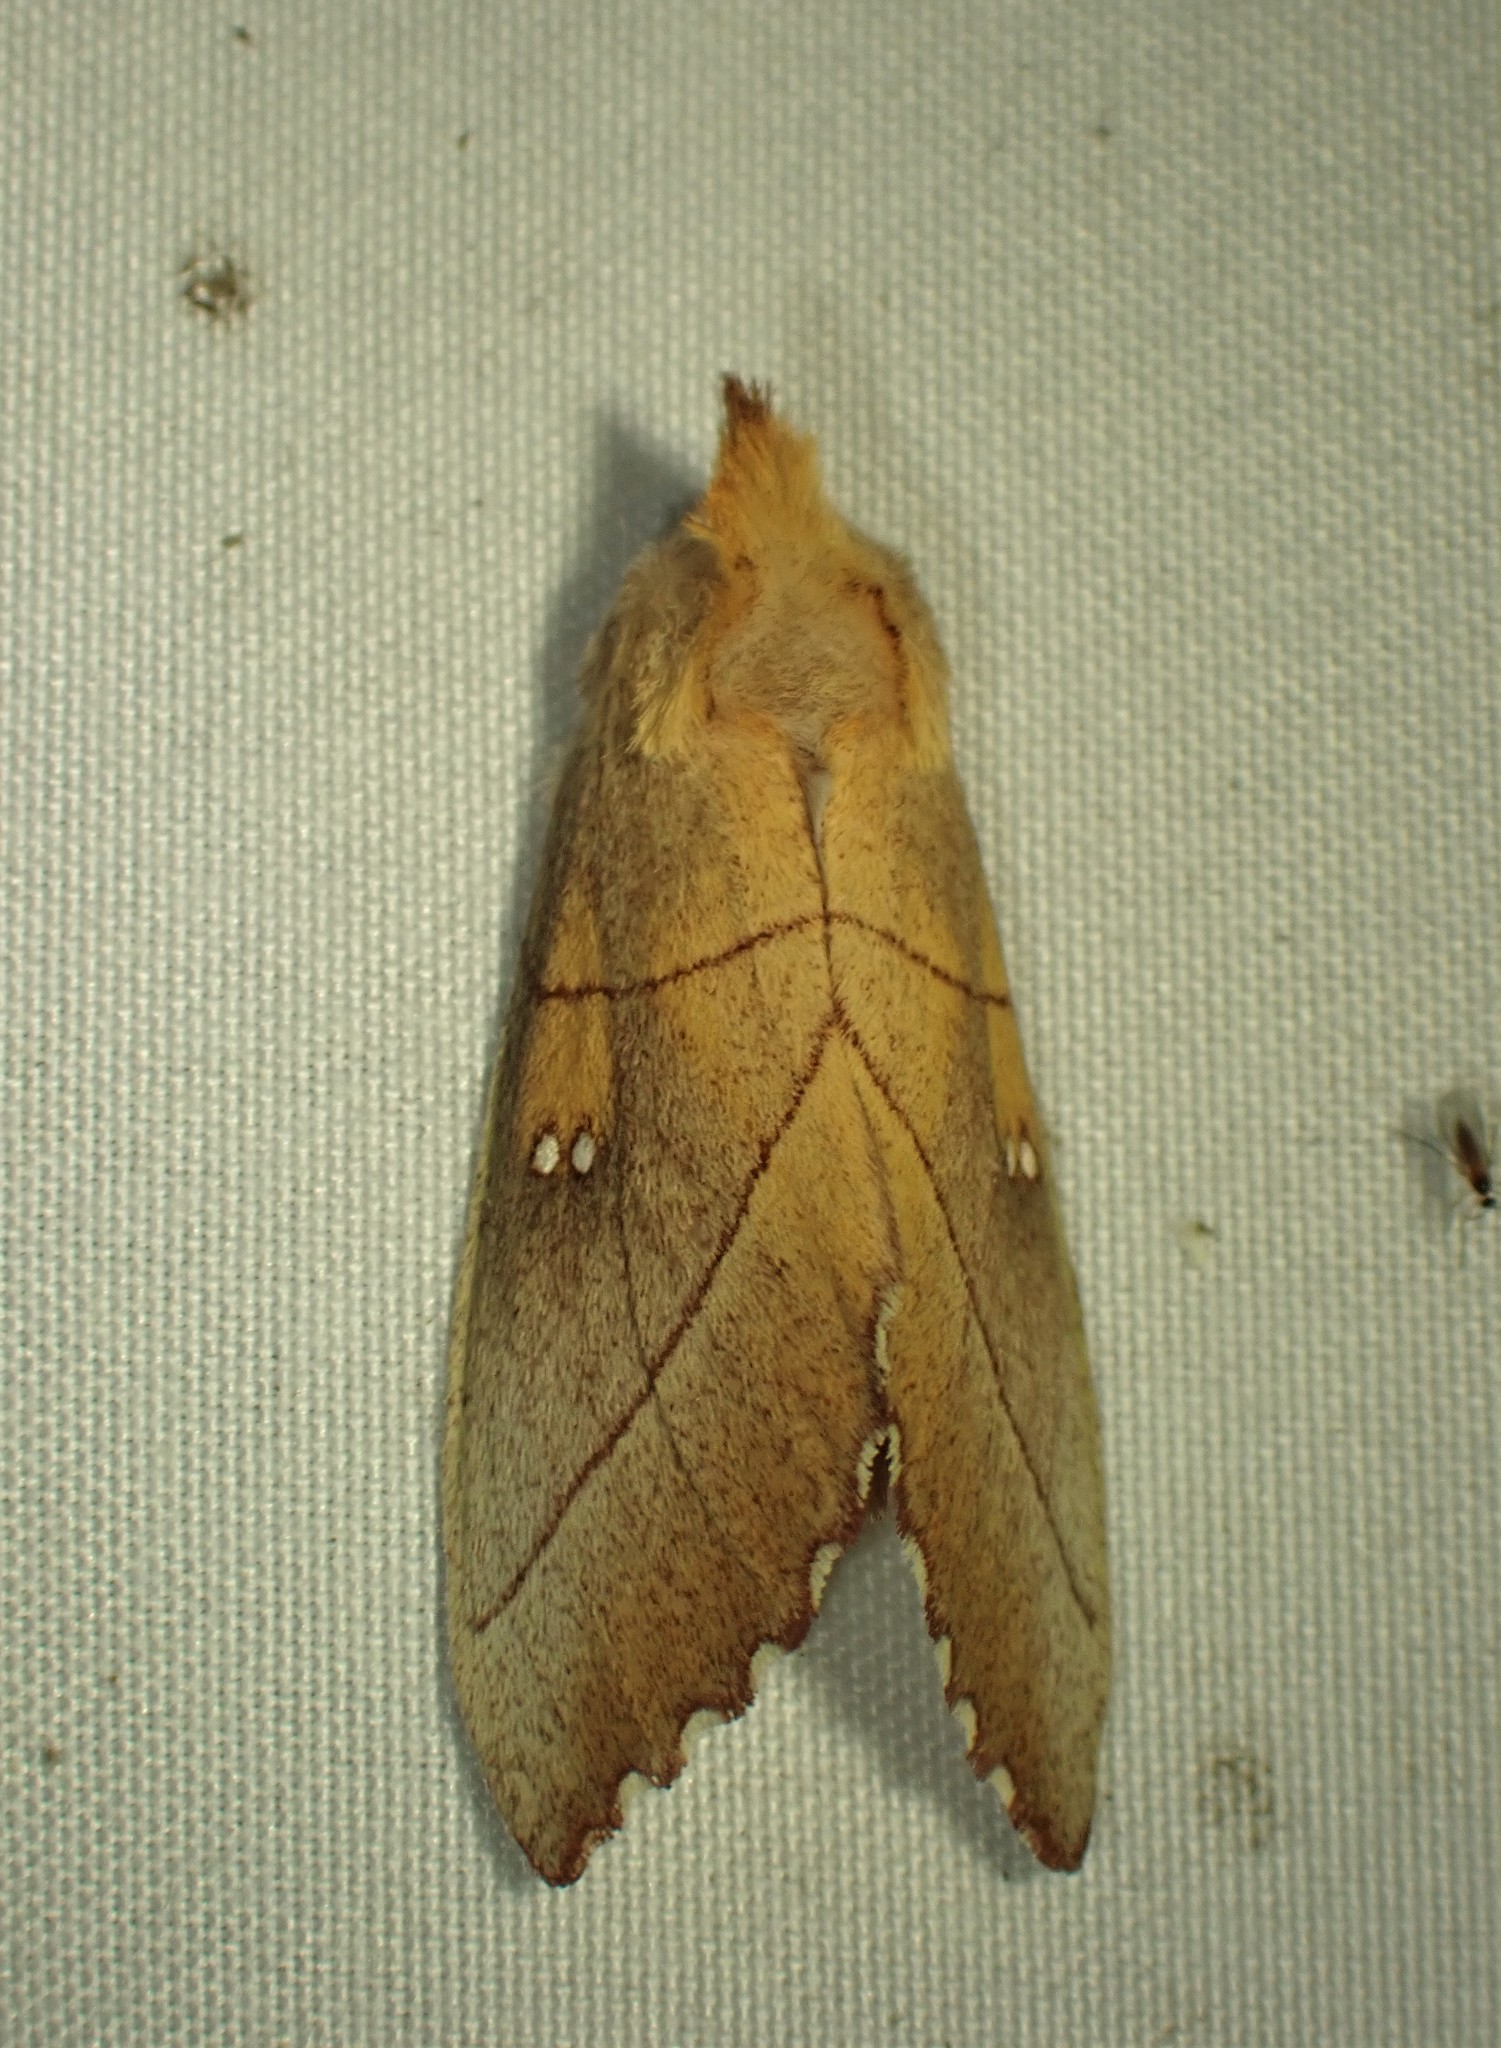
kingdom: Animalia
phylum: Arthropoda
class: Insecta
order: Lepidoptera
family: Notodontidae
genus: Nadata
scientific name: Nadata gibbosa
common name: White-dotted prominent
